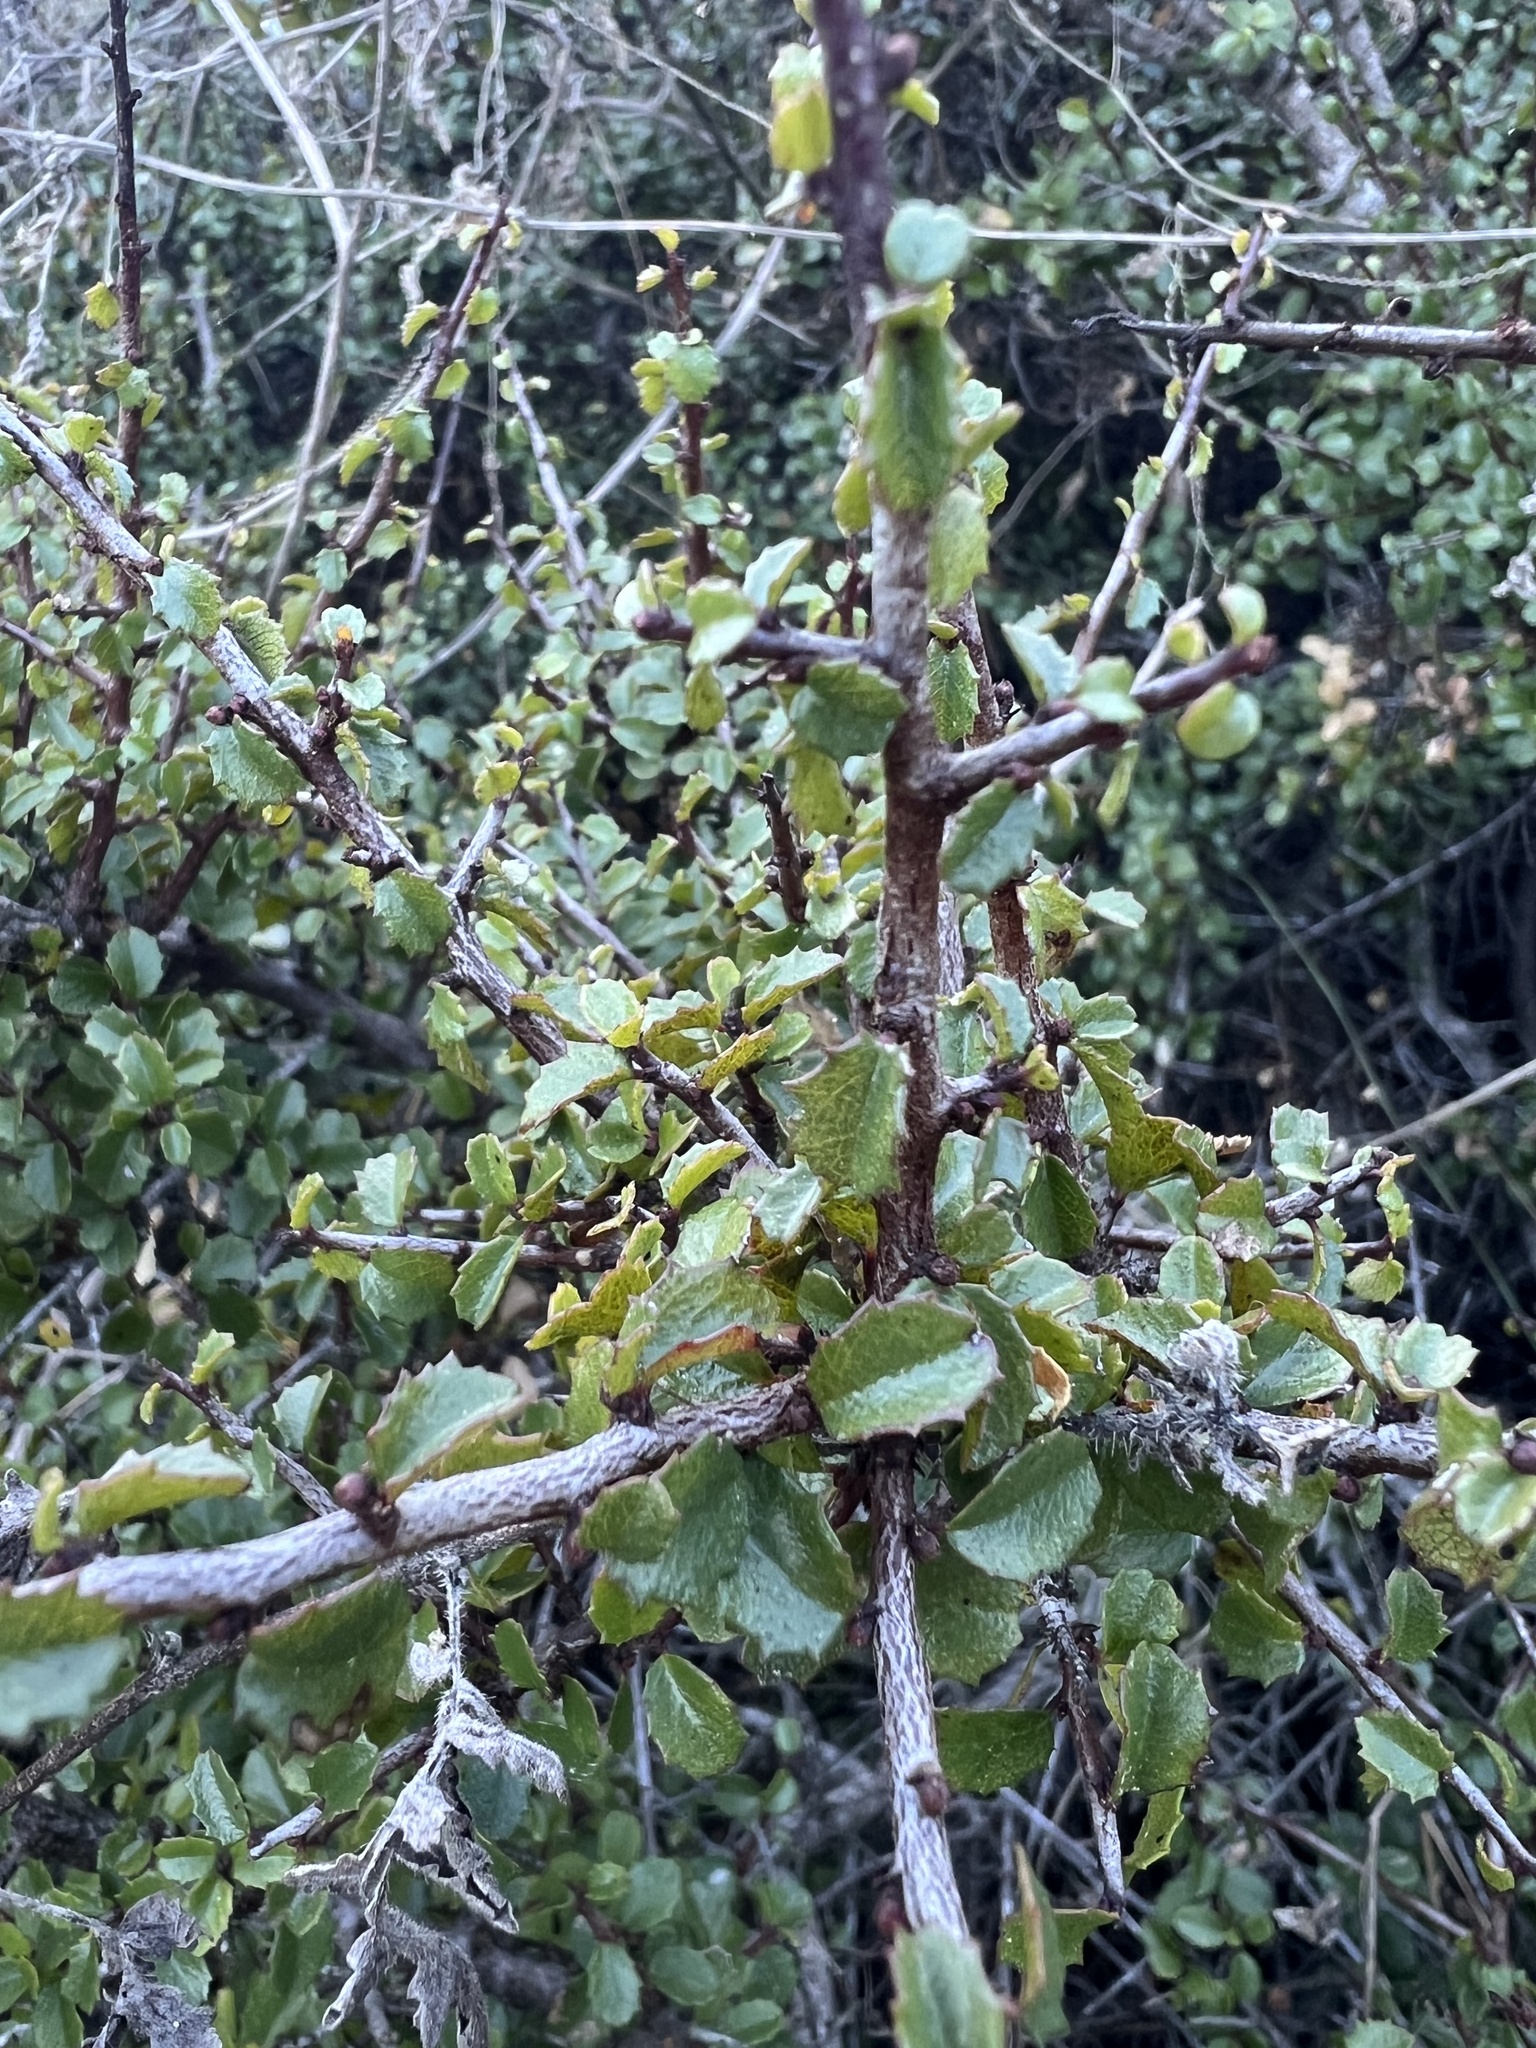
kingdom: Plantae
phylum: Tracheophyta
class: Magnoliopsida
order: Rosales
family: Rhamnaceae
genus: Endotropis
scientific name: Endotropis crocea
